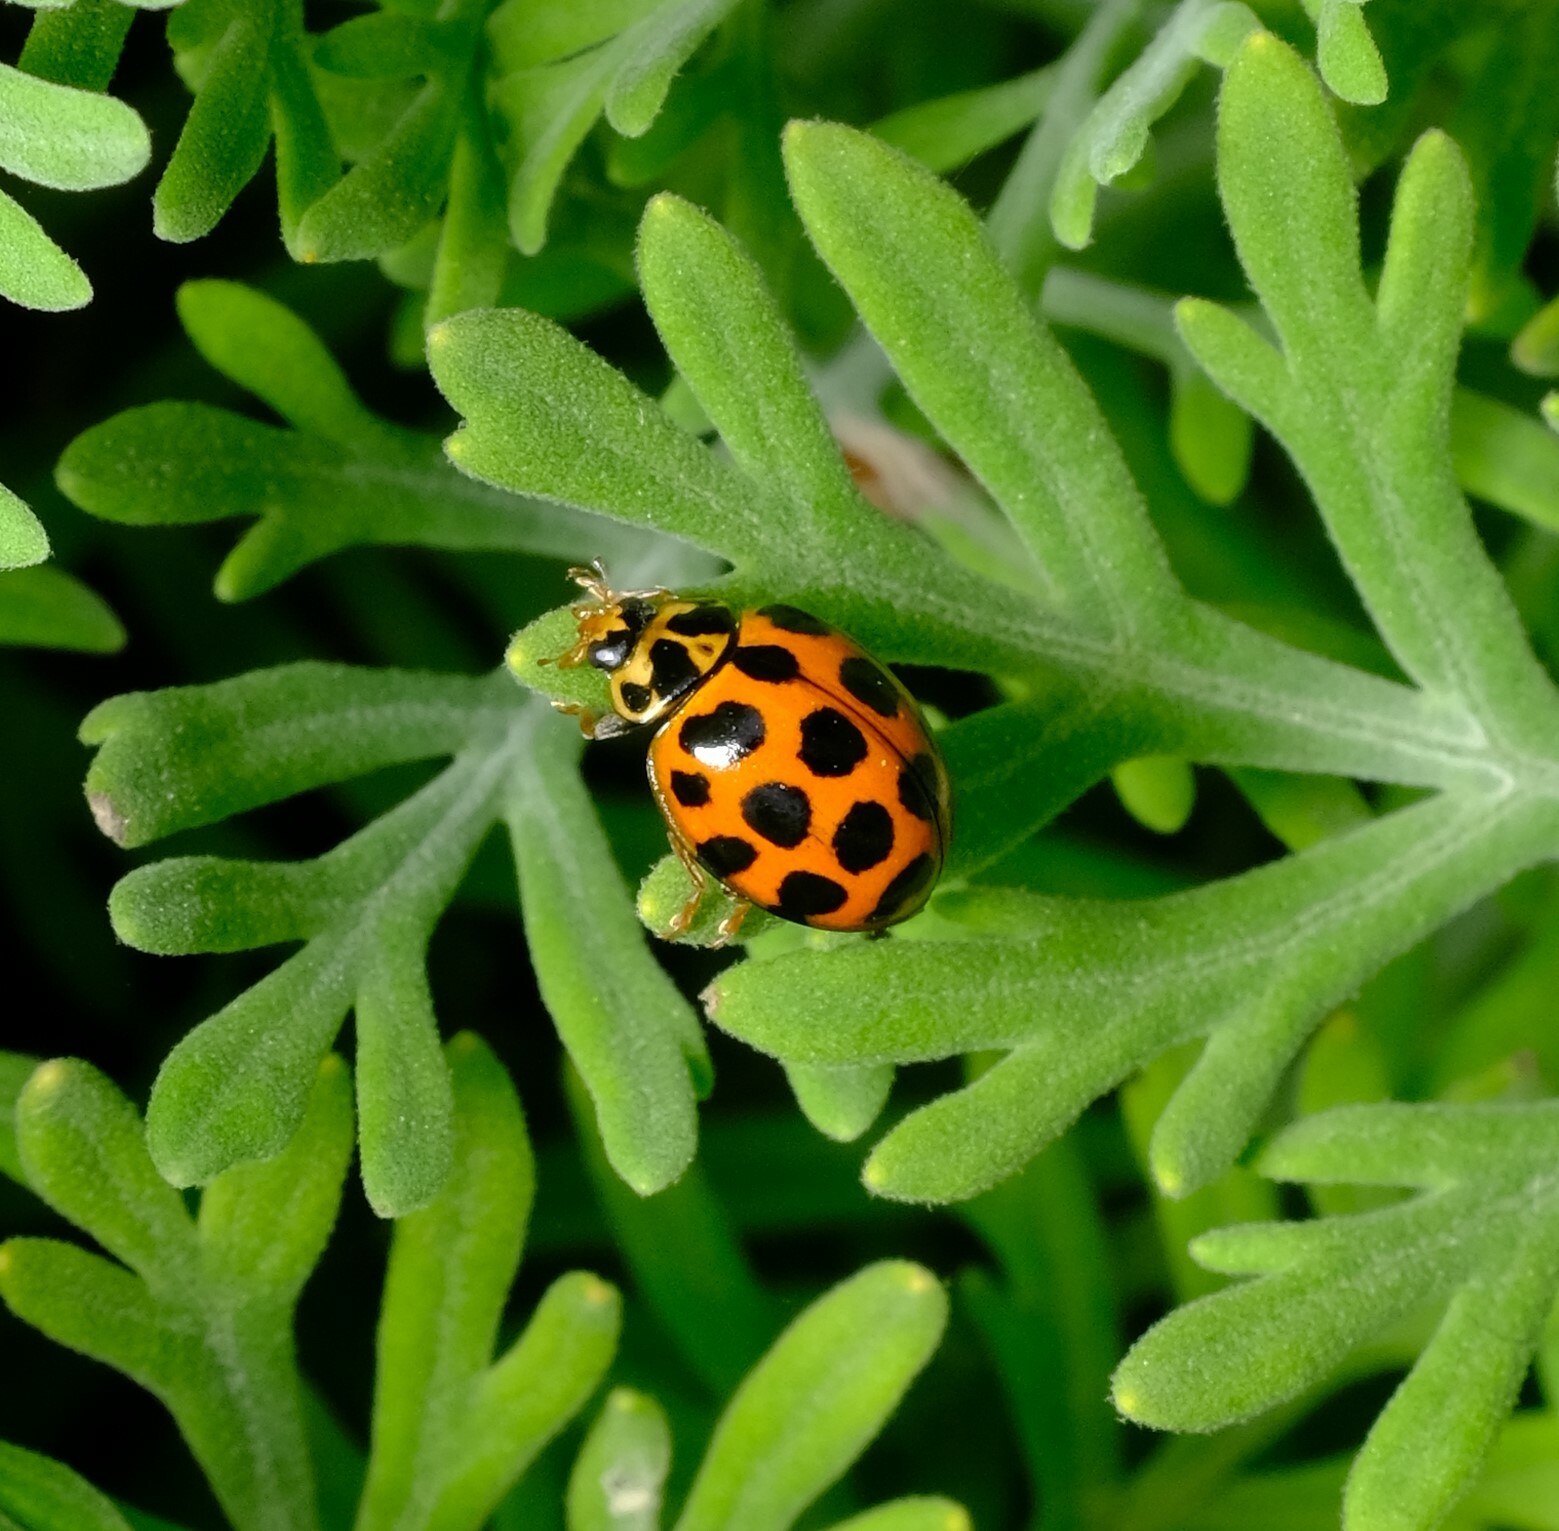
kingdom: Animalia
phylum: Arthropoda
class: Insecta
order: Coleoptera
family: Coccinellidae
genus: Harmonia
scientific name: Harmonia conformis
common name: Common spotted ladybird beetle
